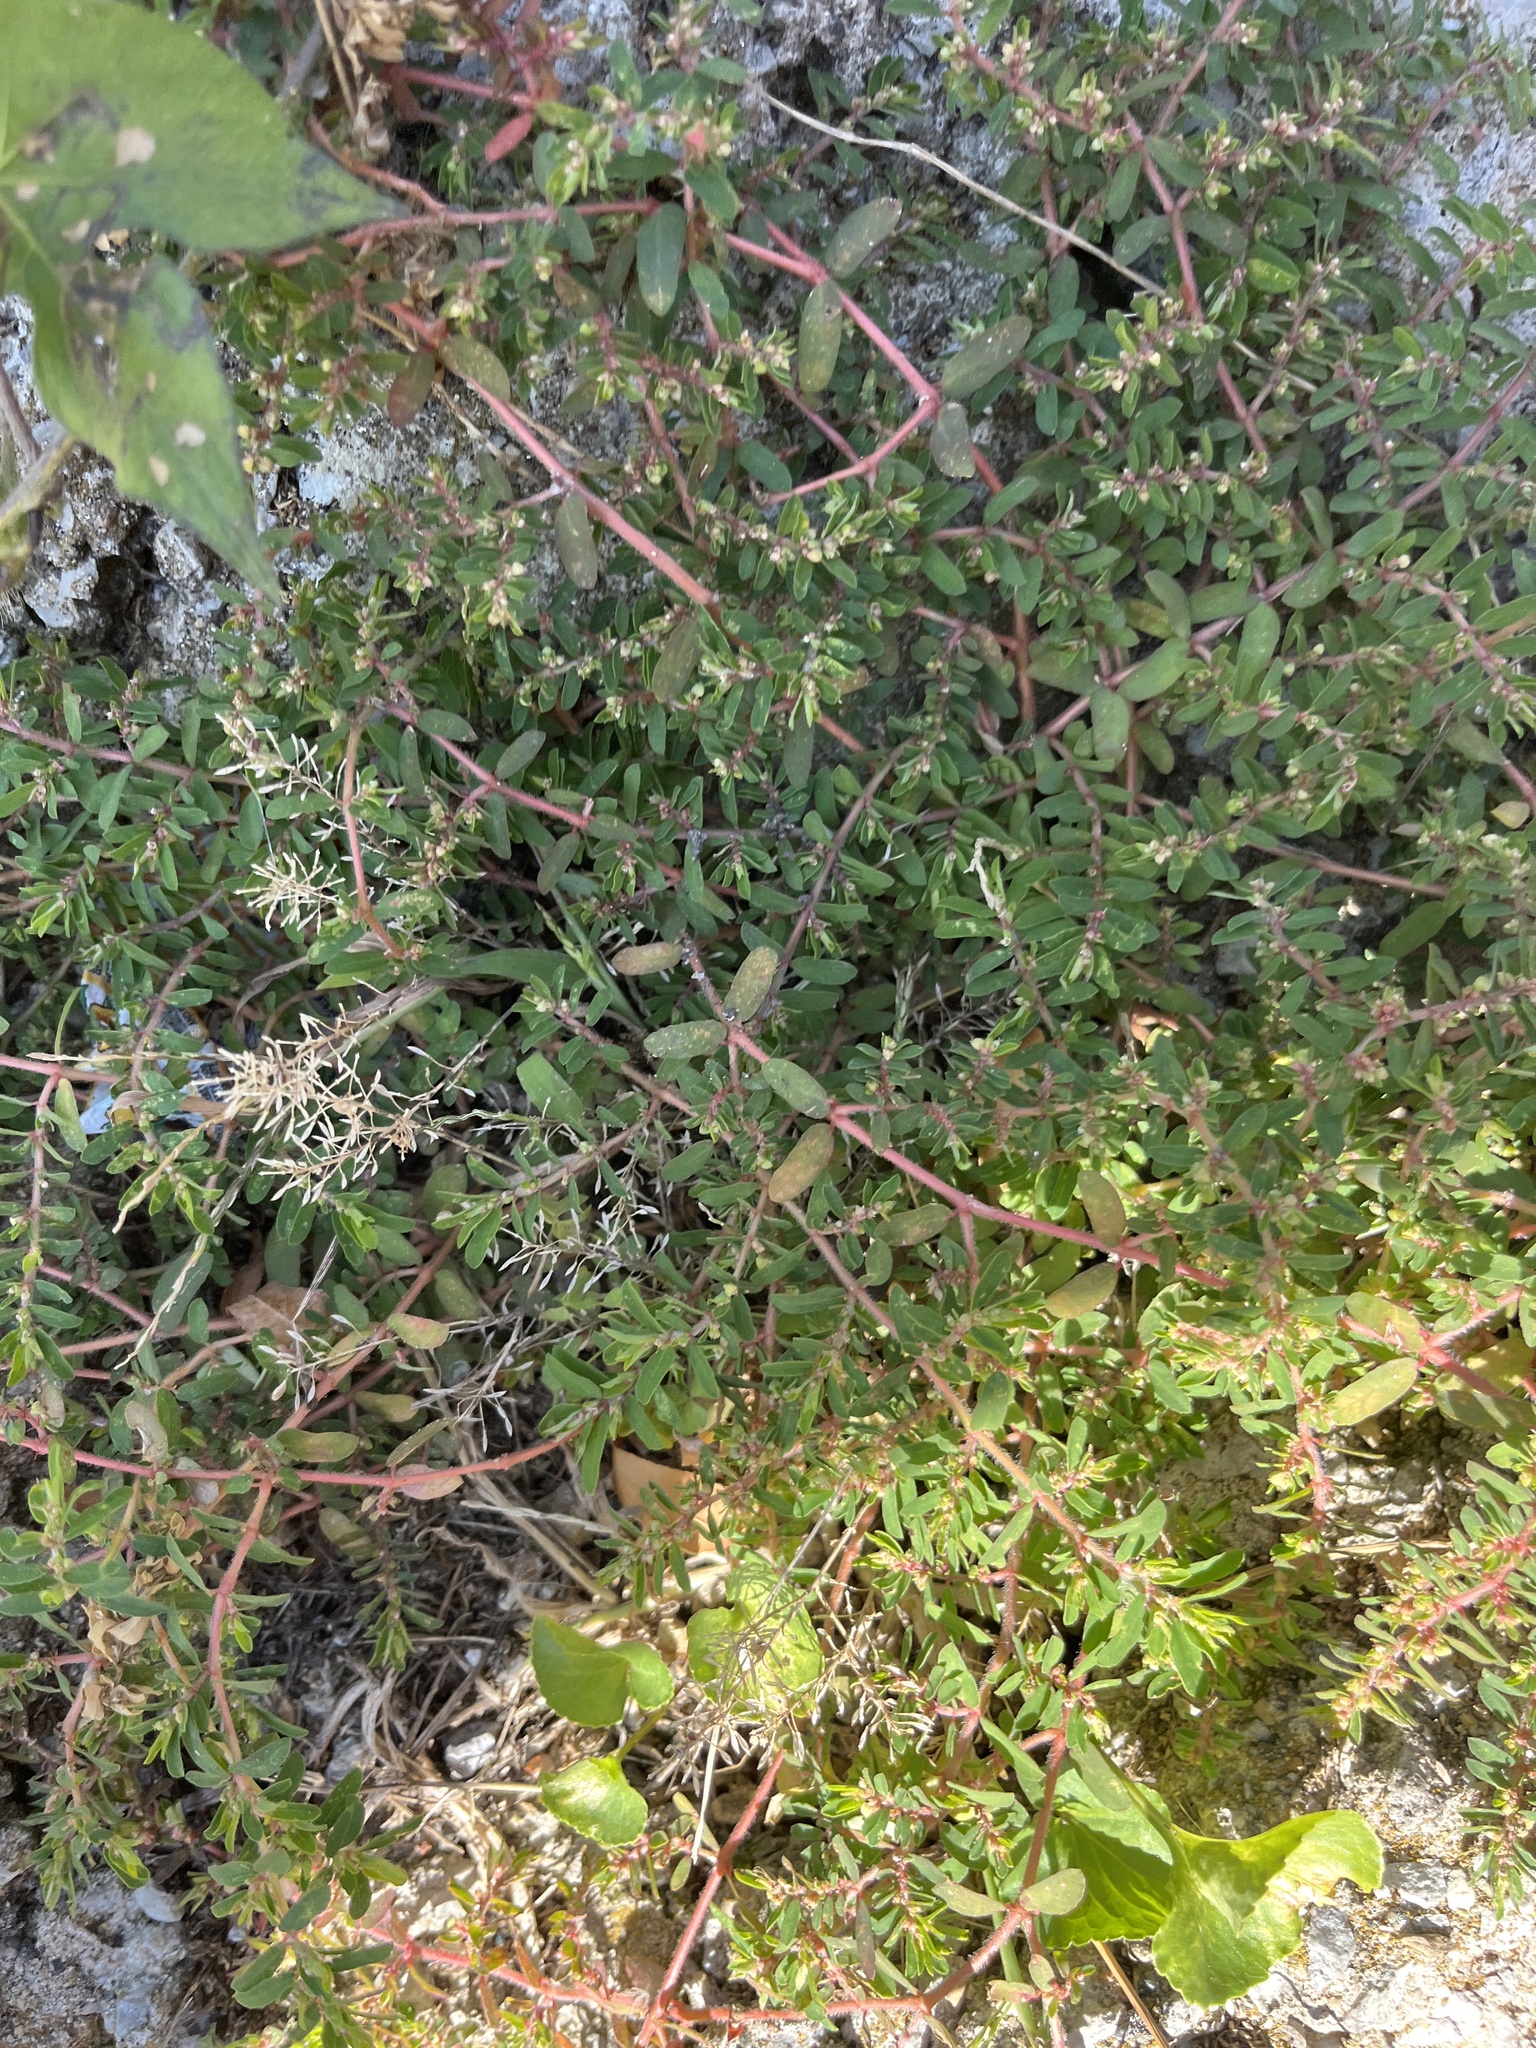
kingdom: Plantae
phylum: Tracheophyta
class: Magnoliopsida
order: Malpighiales
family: Euphorbiaceae
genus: Euphorbia
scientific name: Euphorbia maculata
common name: Spotted spurge
